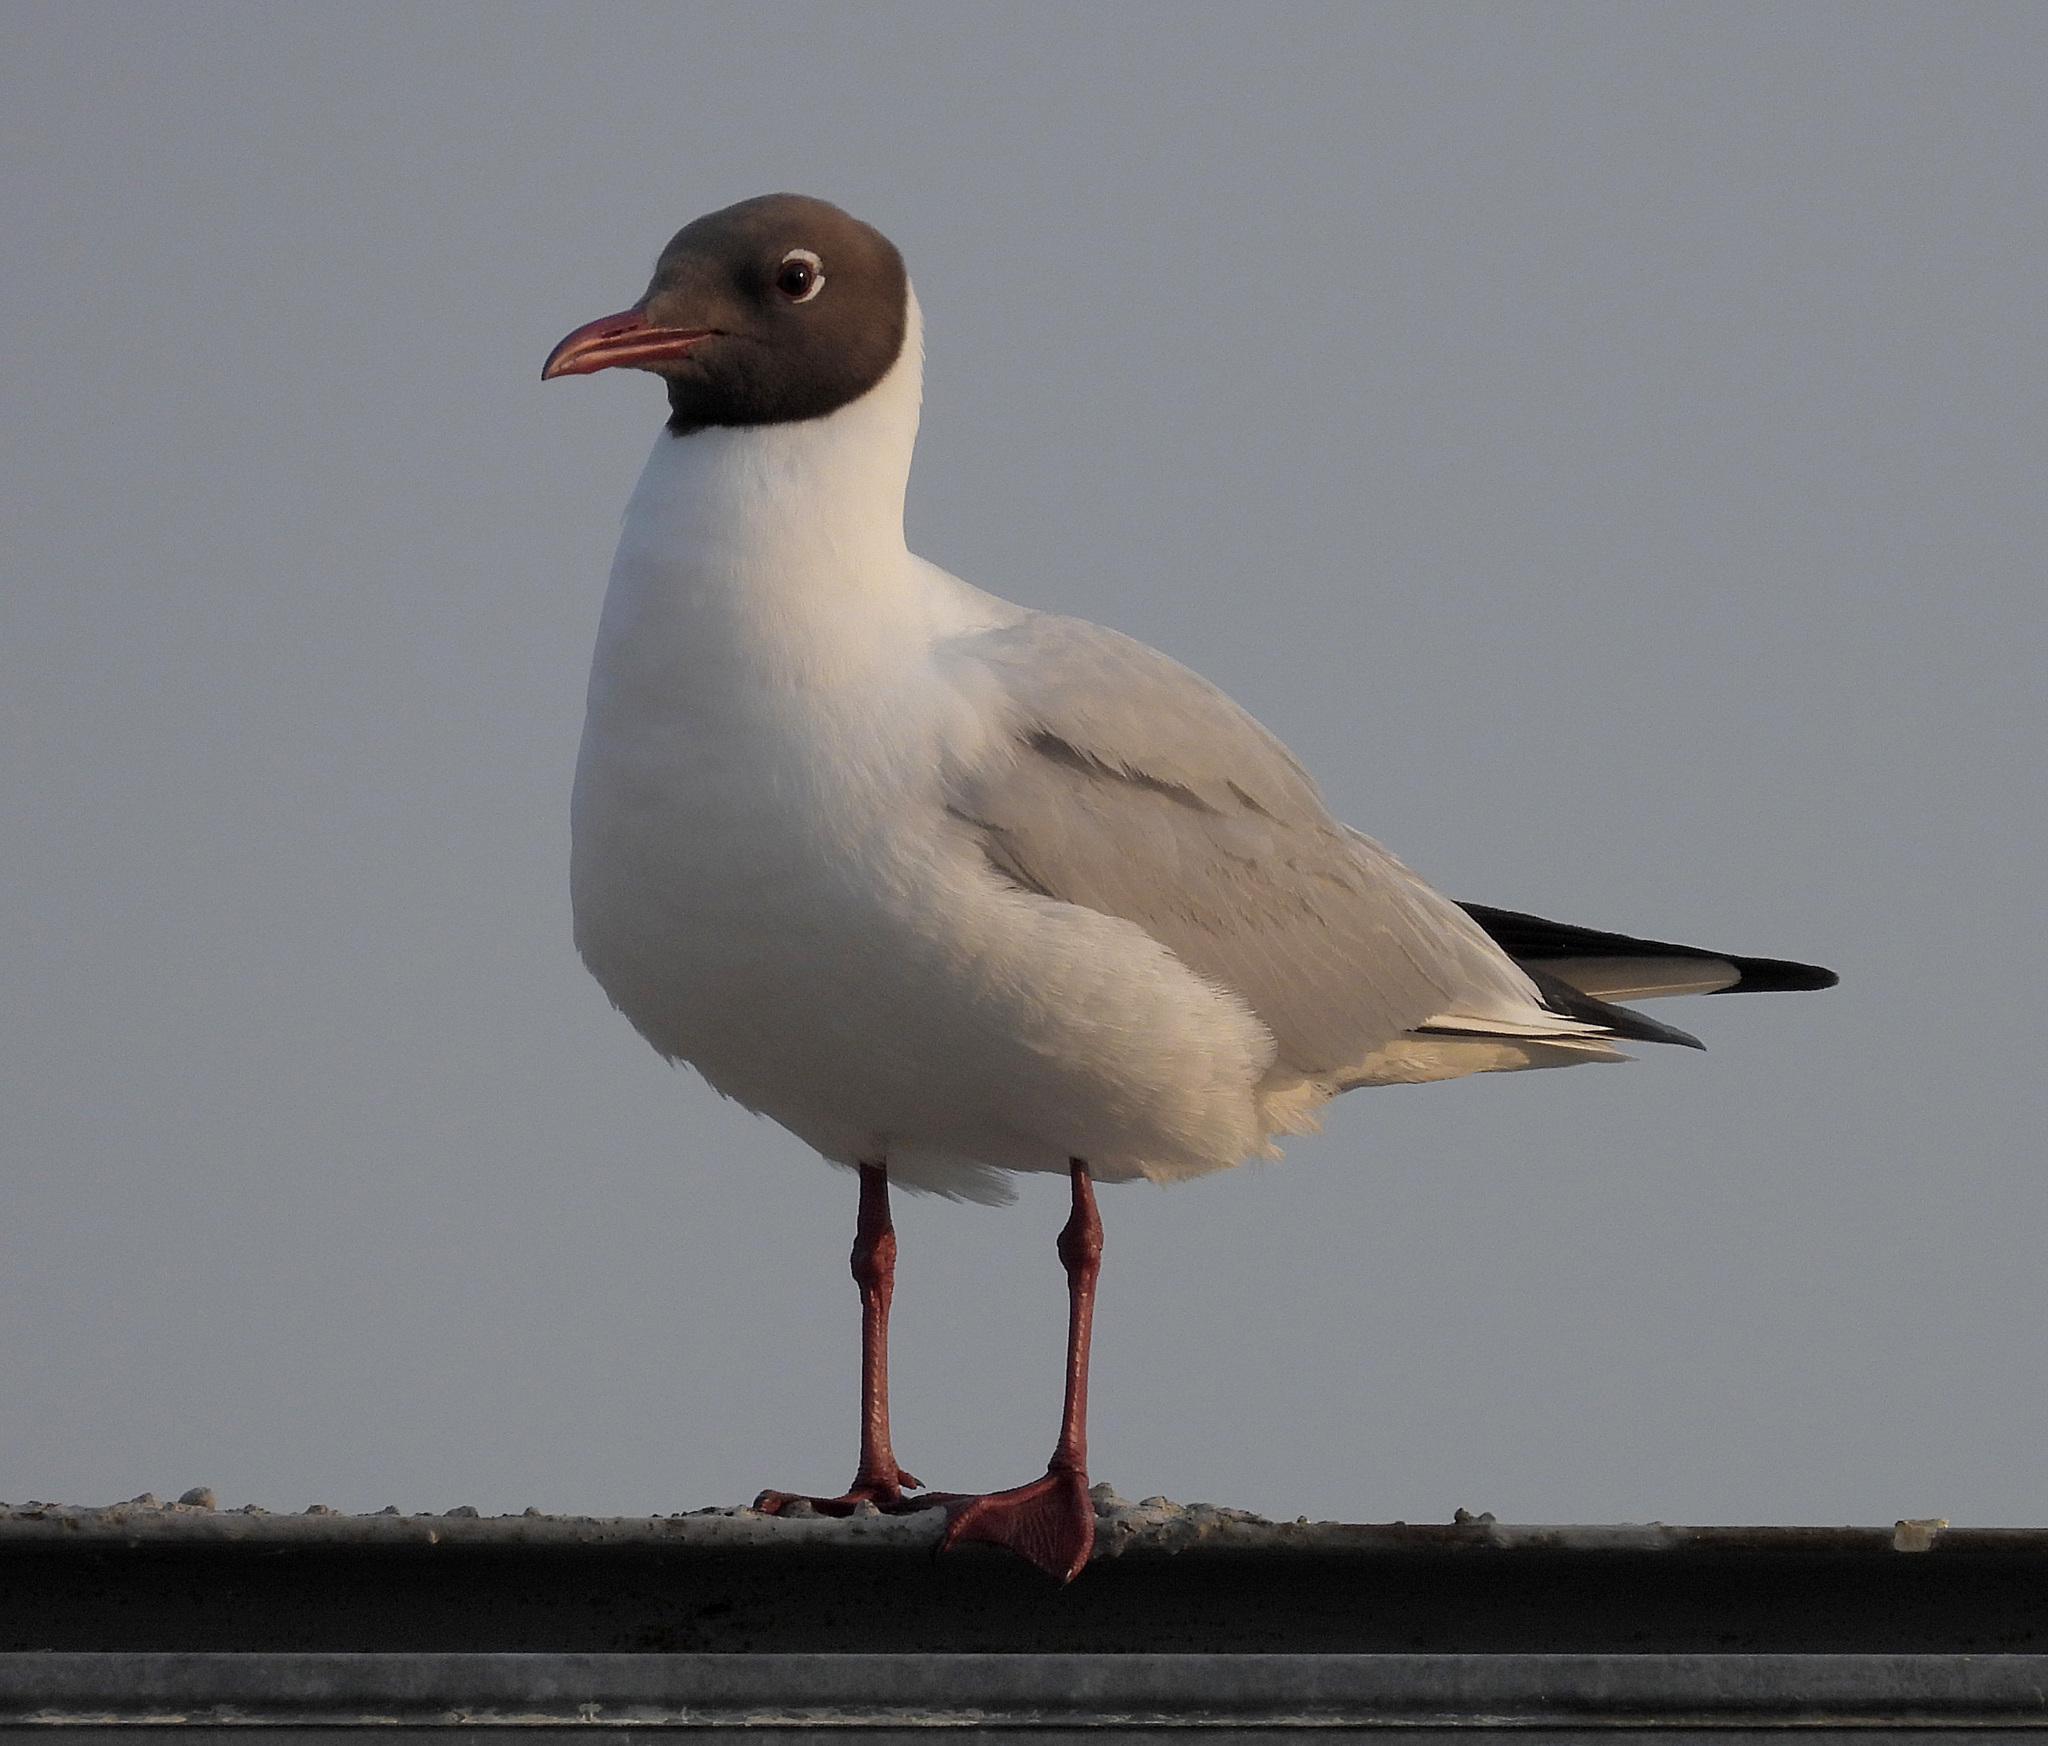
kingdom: Animalia
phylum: Chordata
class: Aves
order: Charadriiformes
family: Laridae
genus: Chroicocephalus
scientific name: Chroicocephalus ridibundus
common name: Black-headed gull
